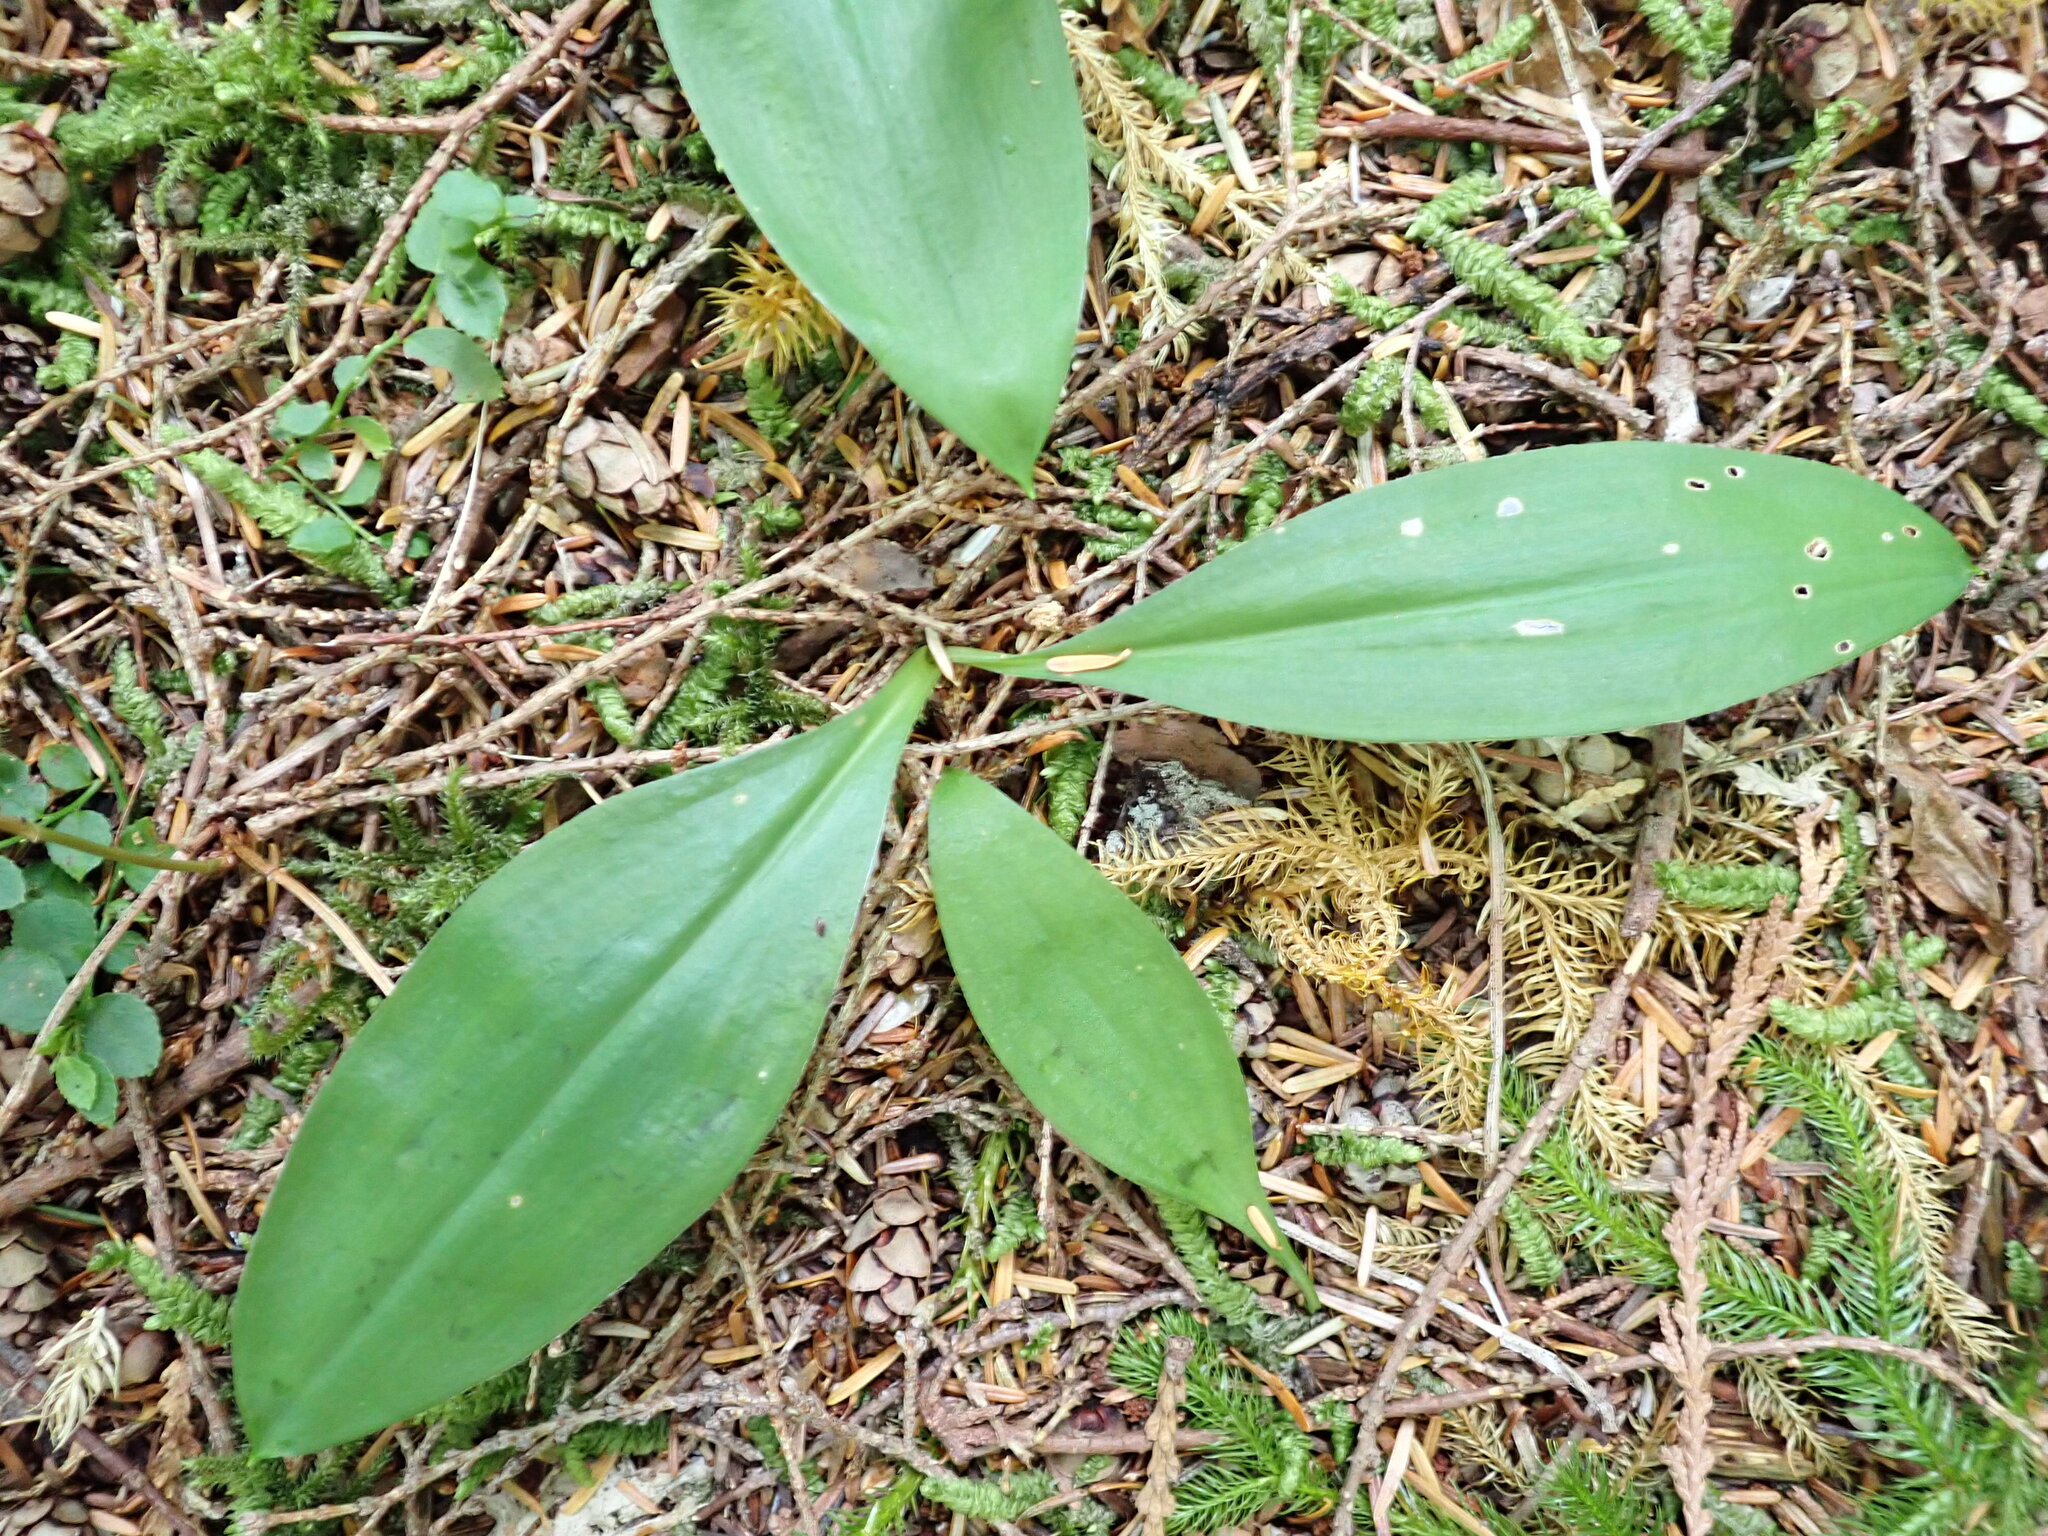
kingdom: Plantae
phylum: Tracheophyta
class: Liliopsida
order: Liliales
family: Liliaceae
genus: Clintonia
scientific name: Clintonia uniflora
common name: Queen's cup
